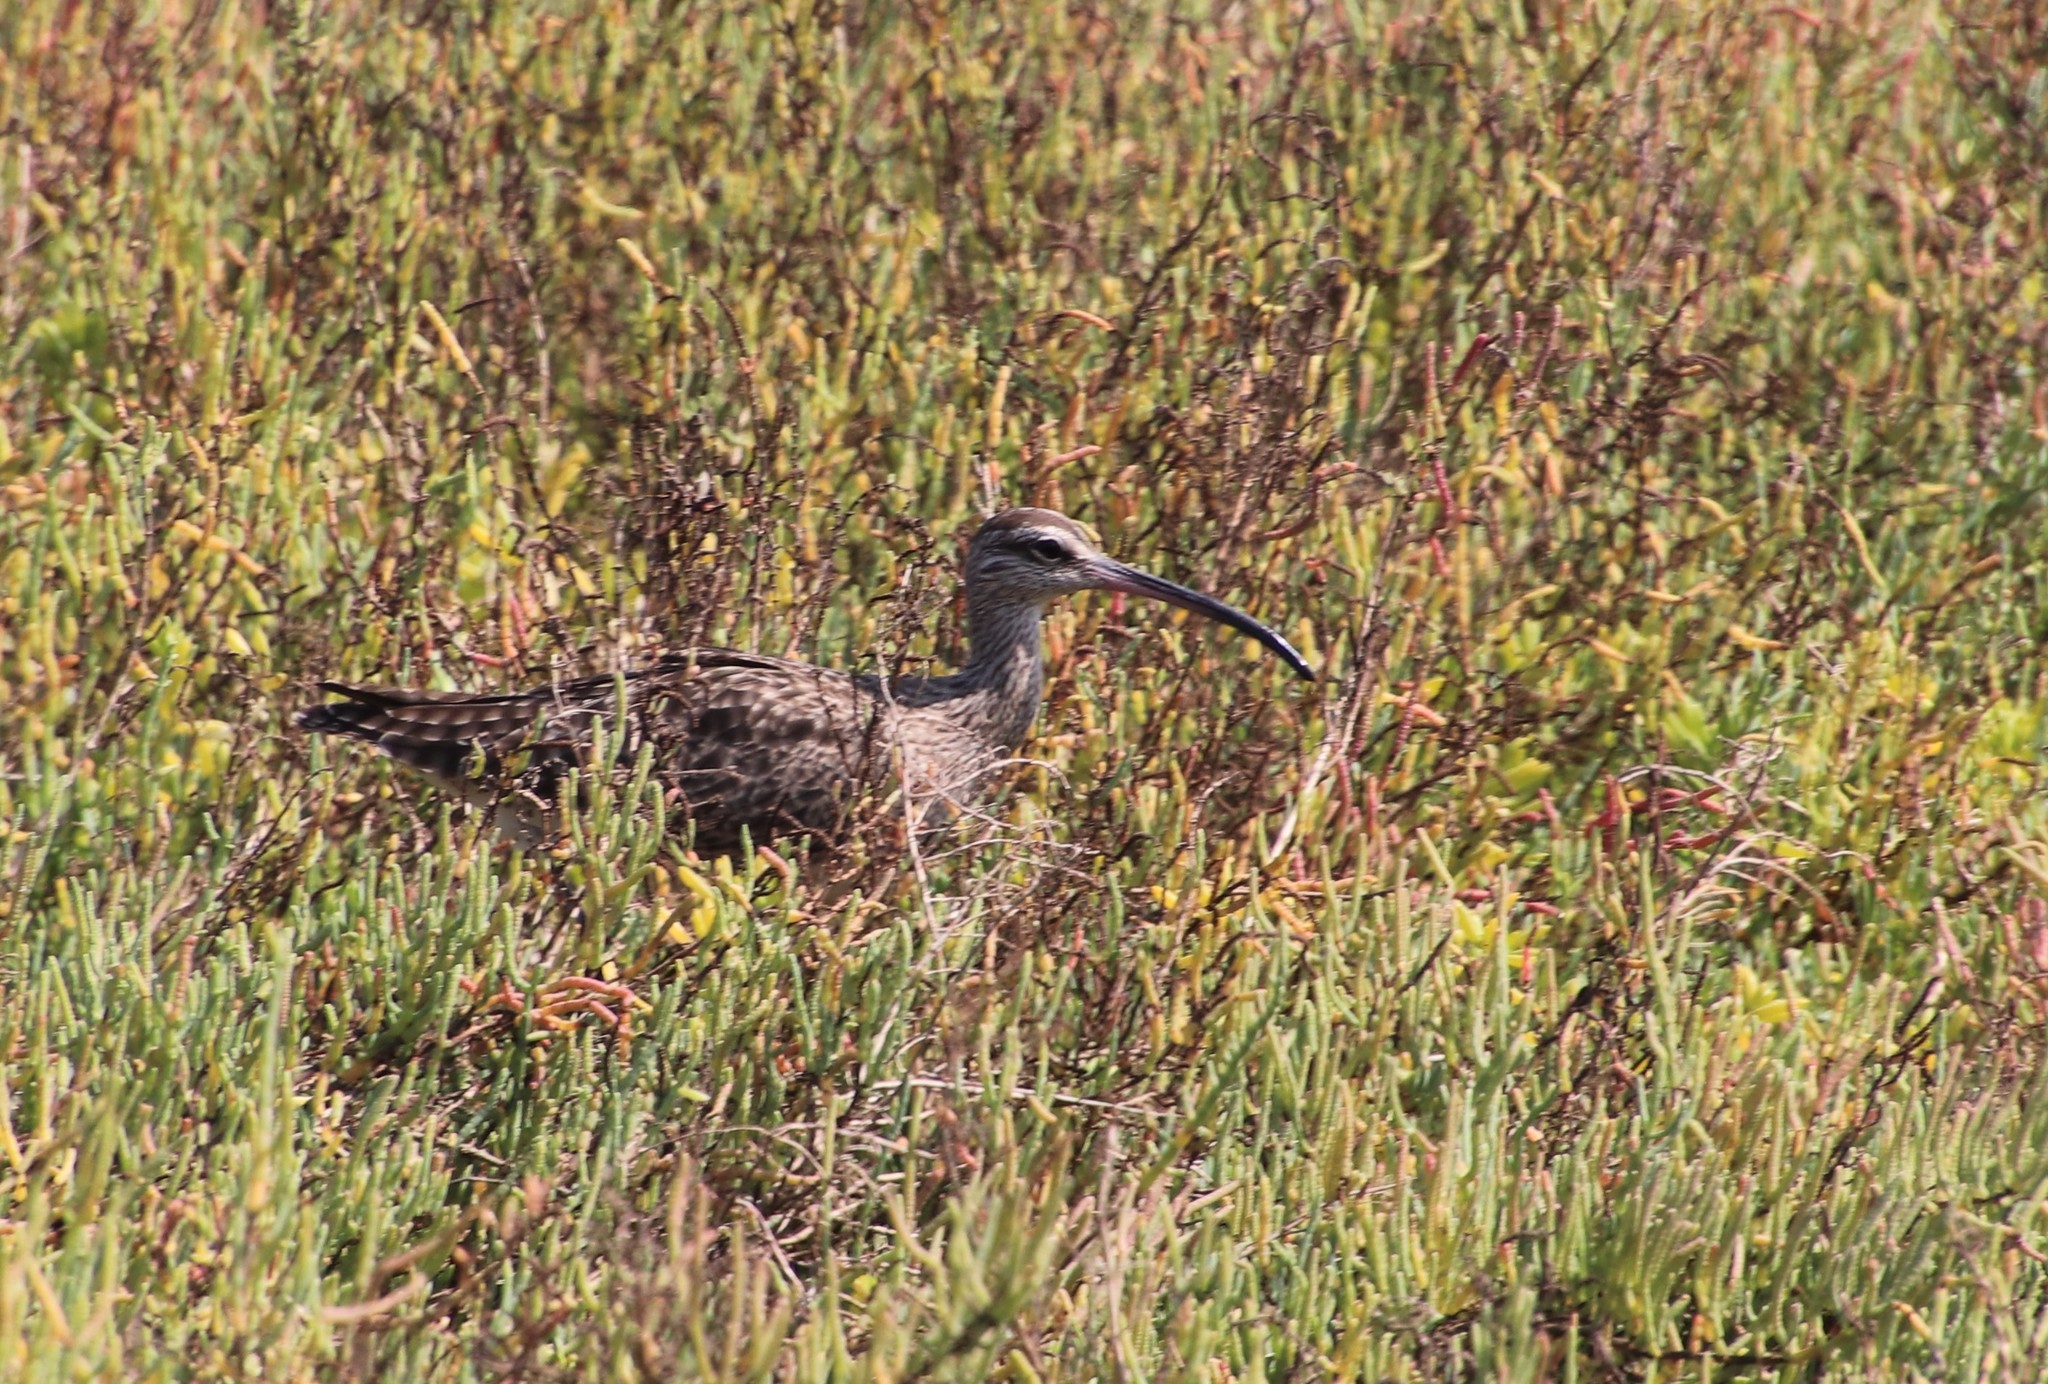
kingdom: Animalia
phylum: Chordata
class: Aves
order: Charadriiformes
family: Scolopacidae
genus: Numenius
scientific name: Numenius phaeopus
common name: Whimbrel
